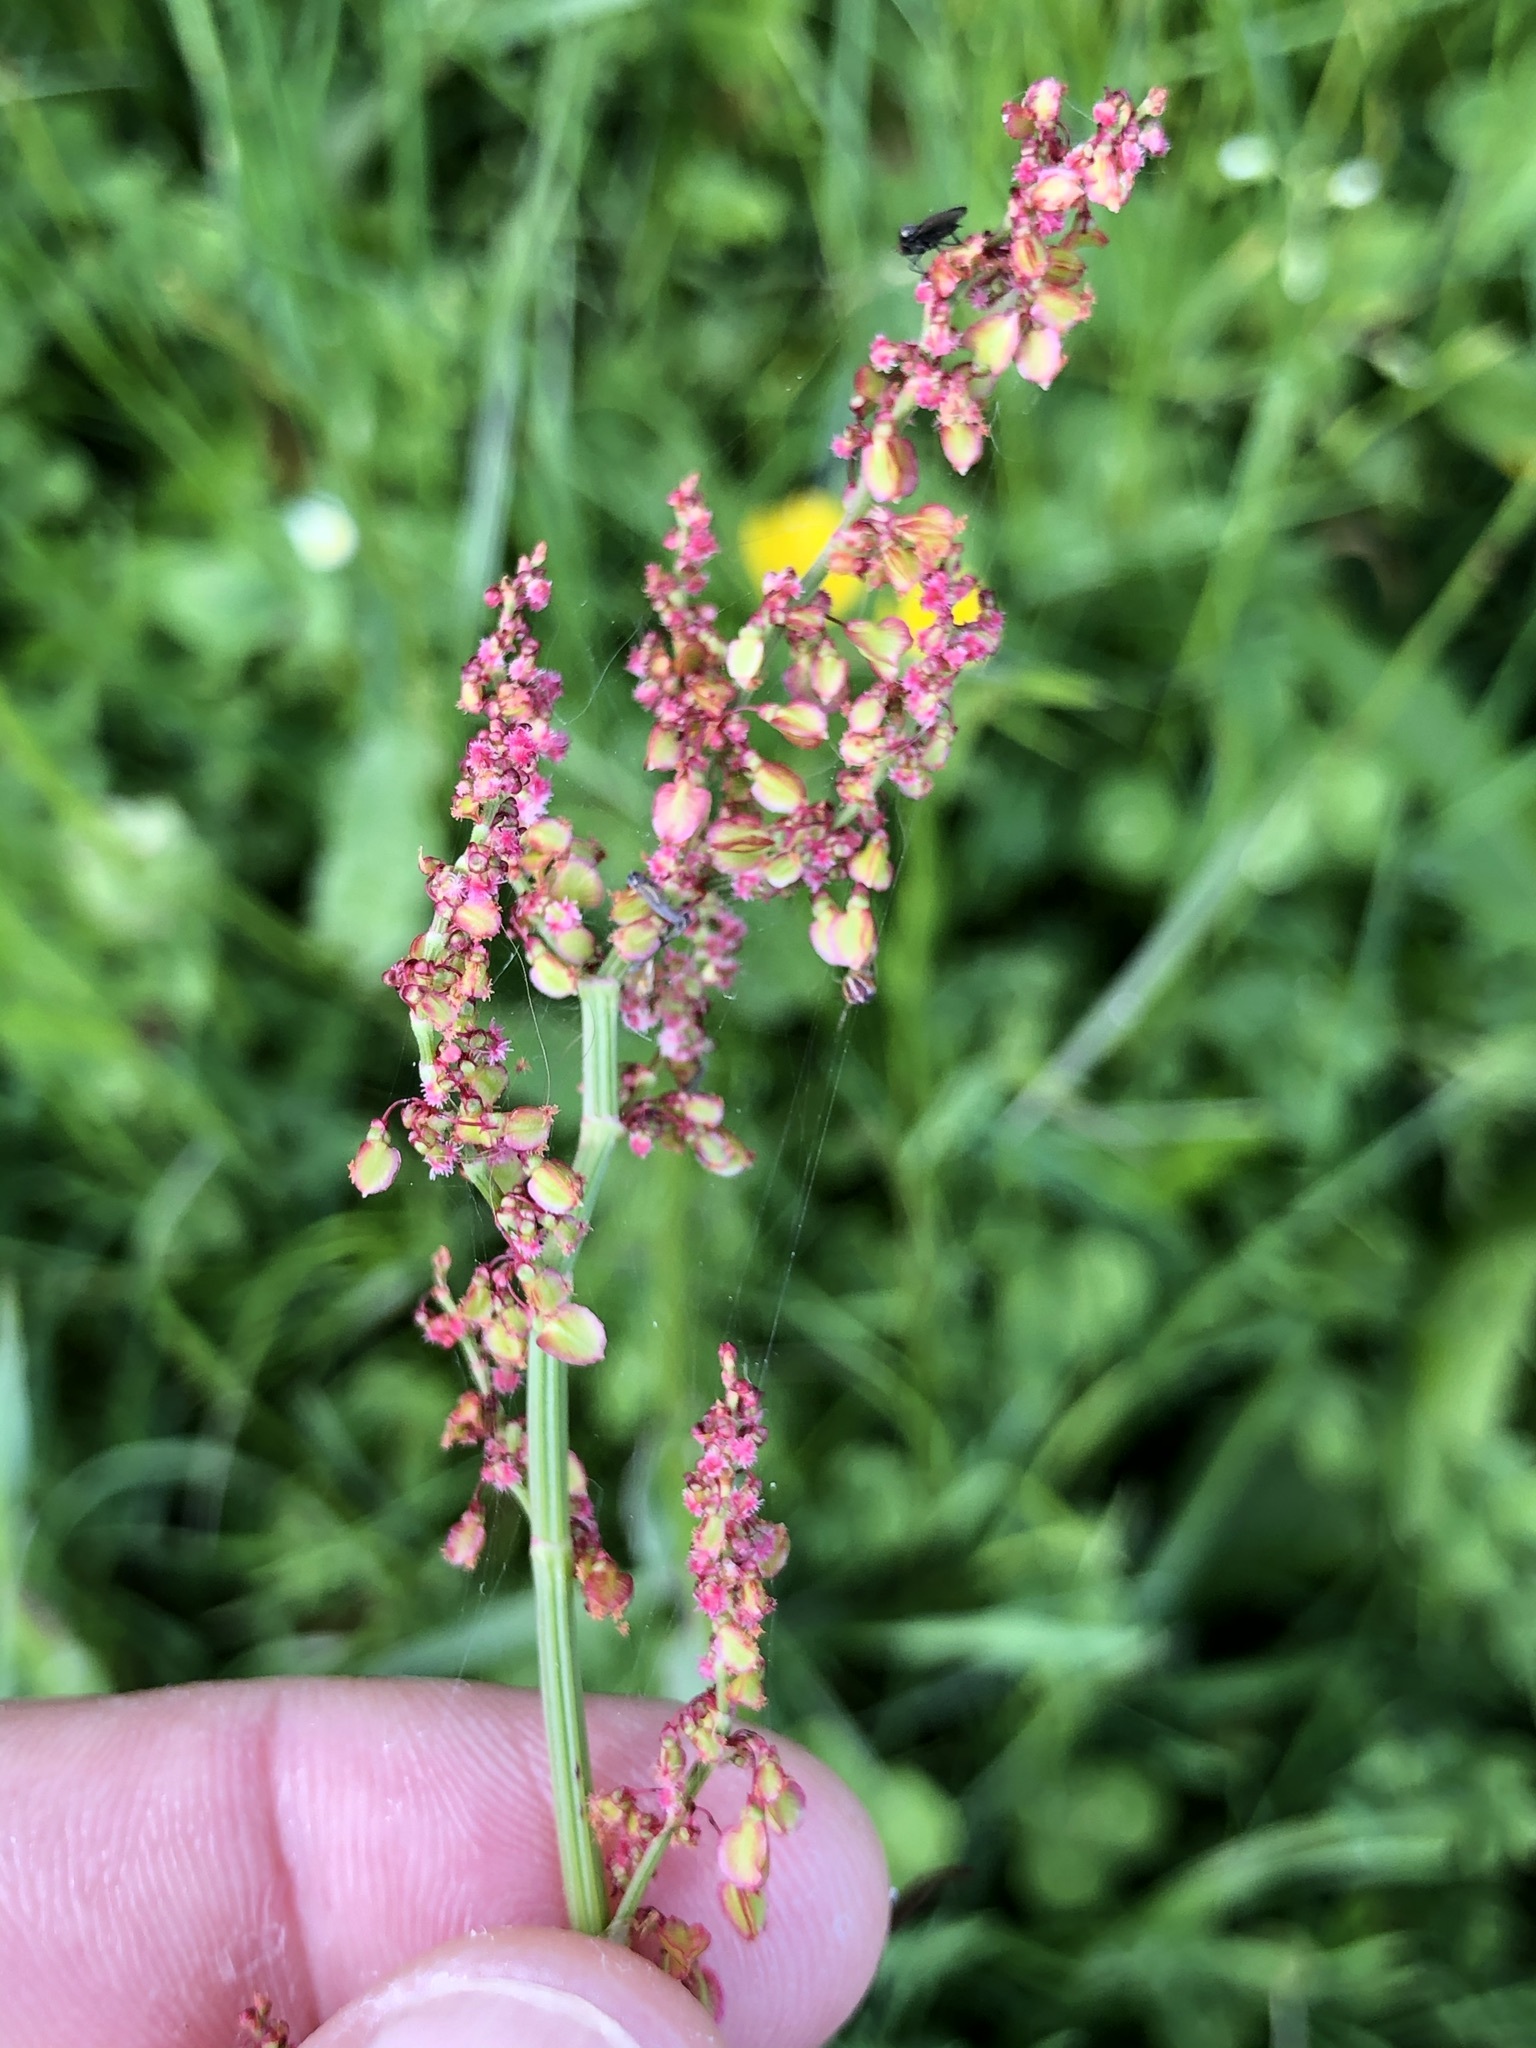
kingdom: Plantae
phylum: Tracheophyta
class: Magnoliopsida
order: Caryophyllales
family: Polygonaceae
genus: Rumex
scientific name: Rumex acetosa
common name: Garden sorrel
